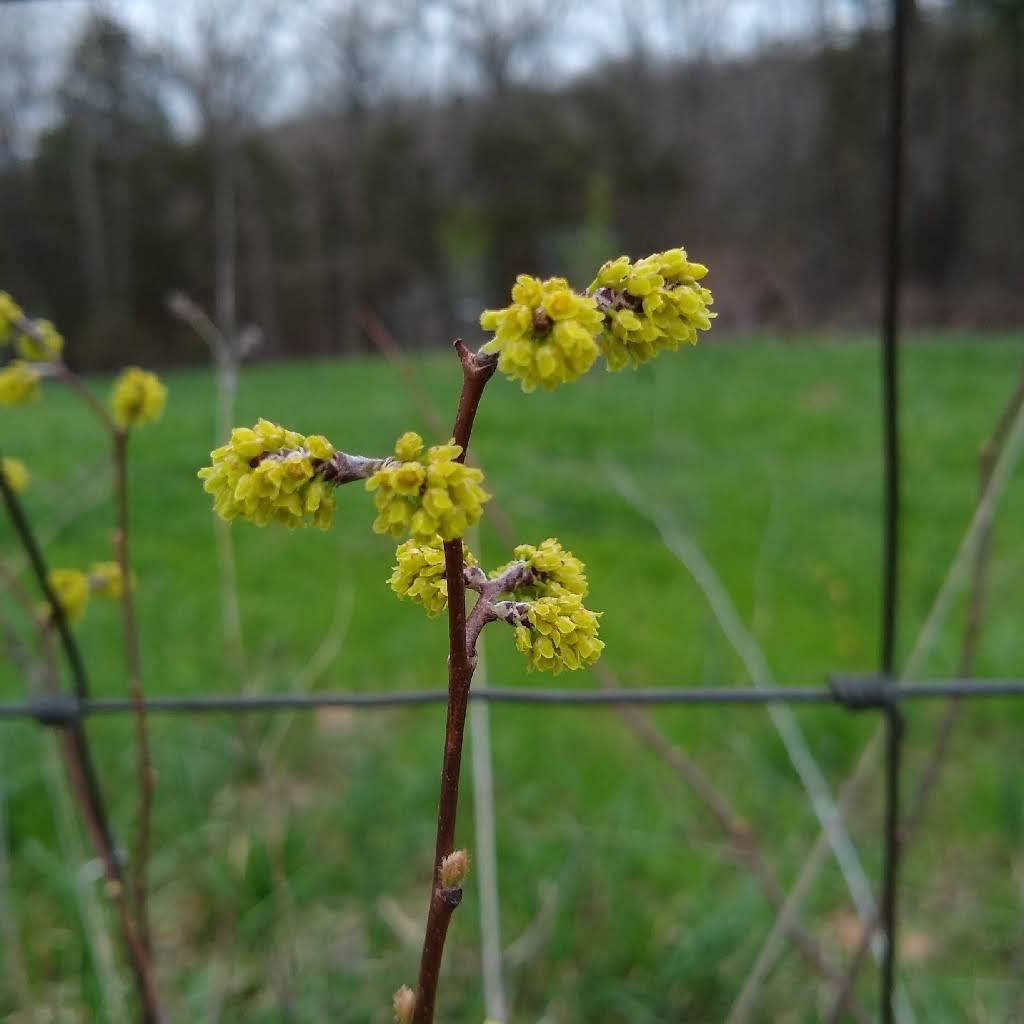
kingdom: Plantae
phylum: Tracheophyta
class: Magnoliopsida
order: Sapindales
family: Anacardiaceae
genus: Rhus
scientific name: Rhus aromatica
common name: Aromatic sumac
